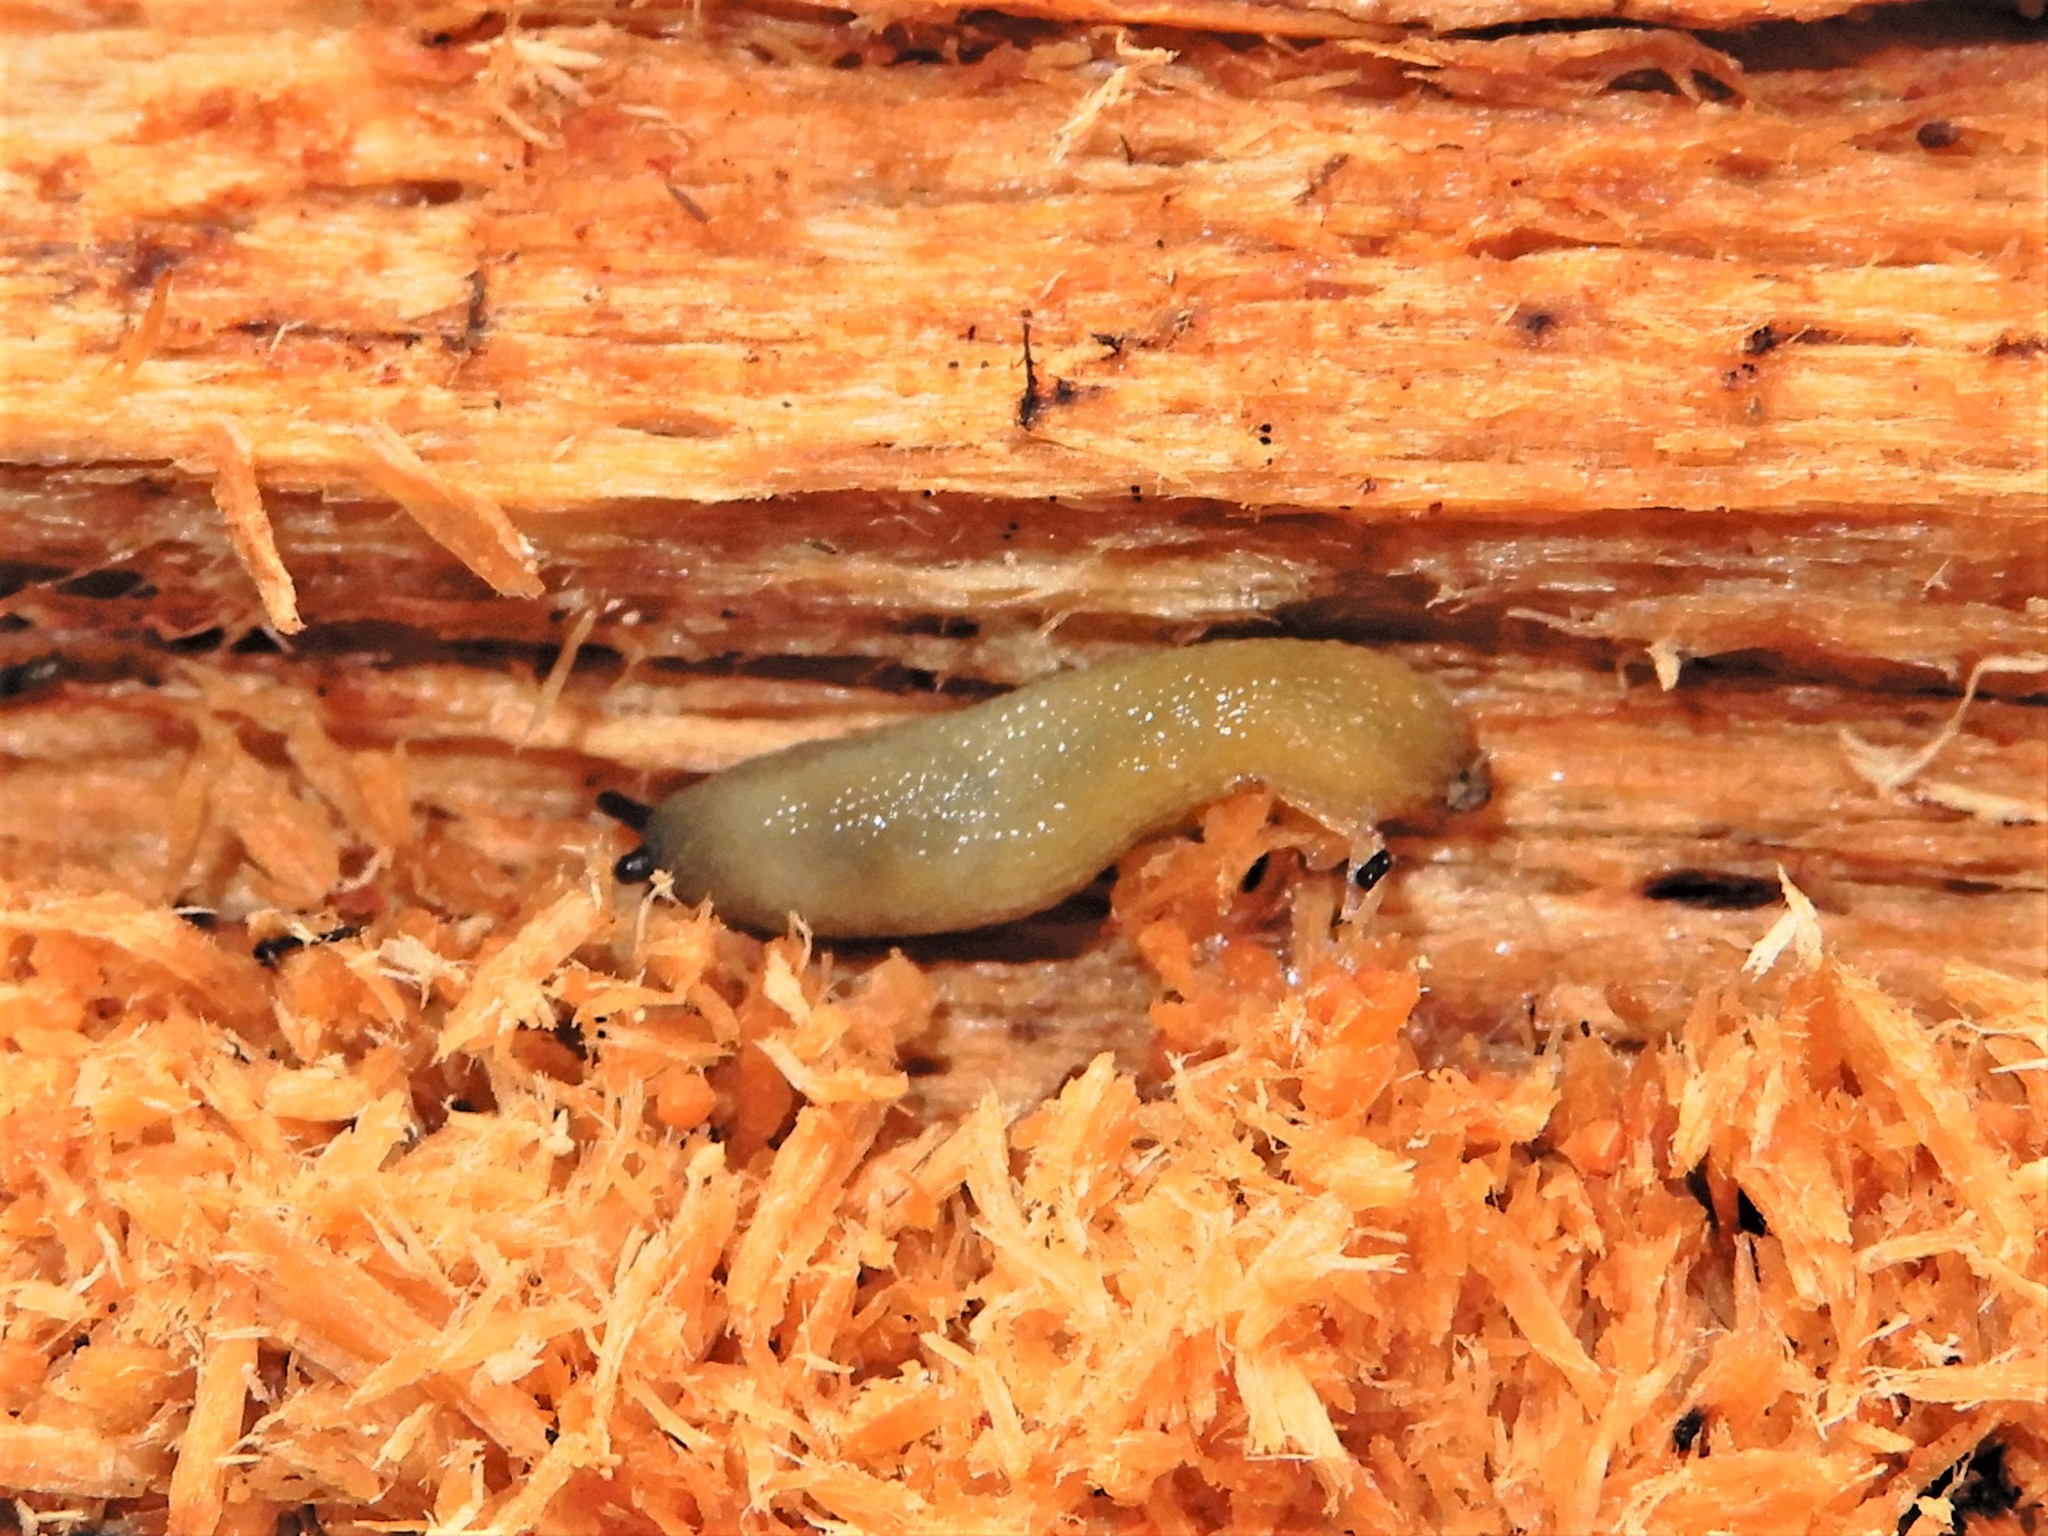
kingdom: Animalia
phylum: Mollusca
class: Gastropoda
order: Stylommatophora
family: Arionidae
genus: Arion
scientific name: Arion intermedius
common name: Hedgehog slug
